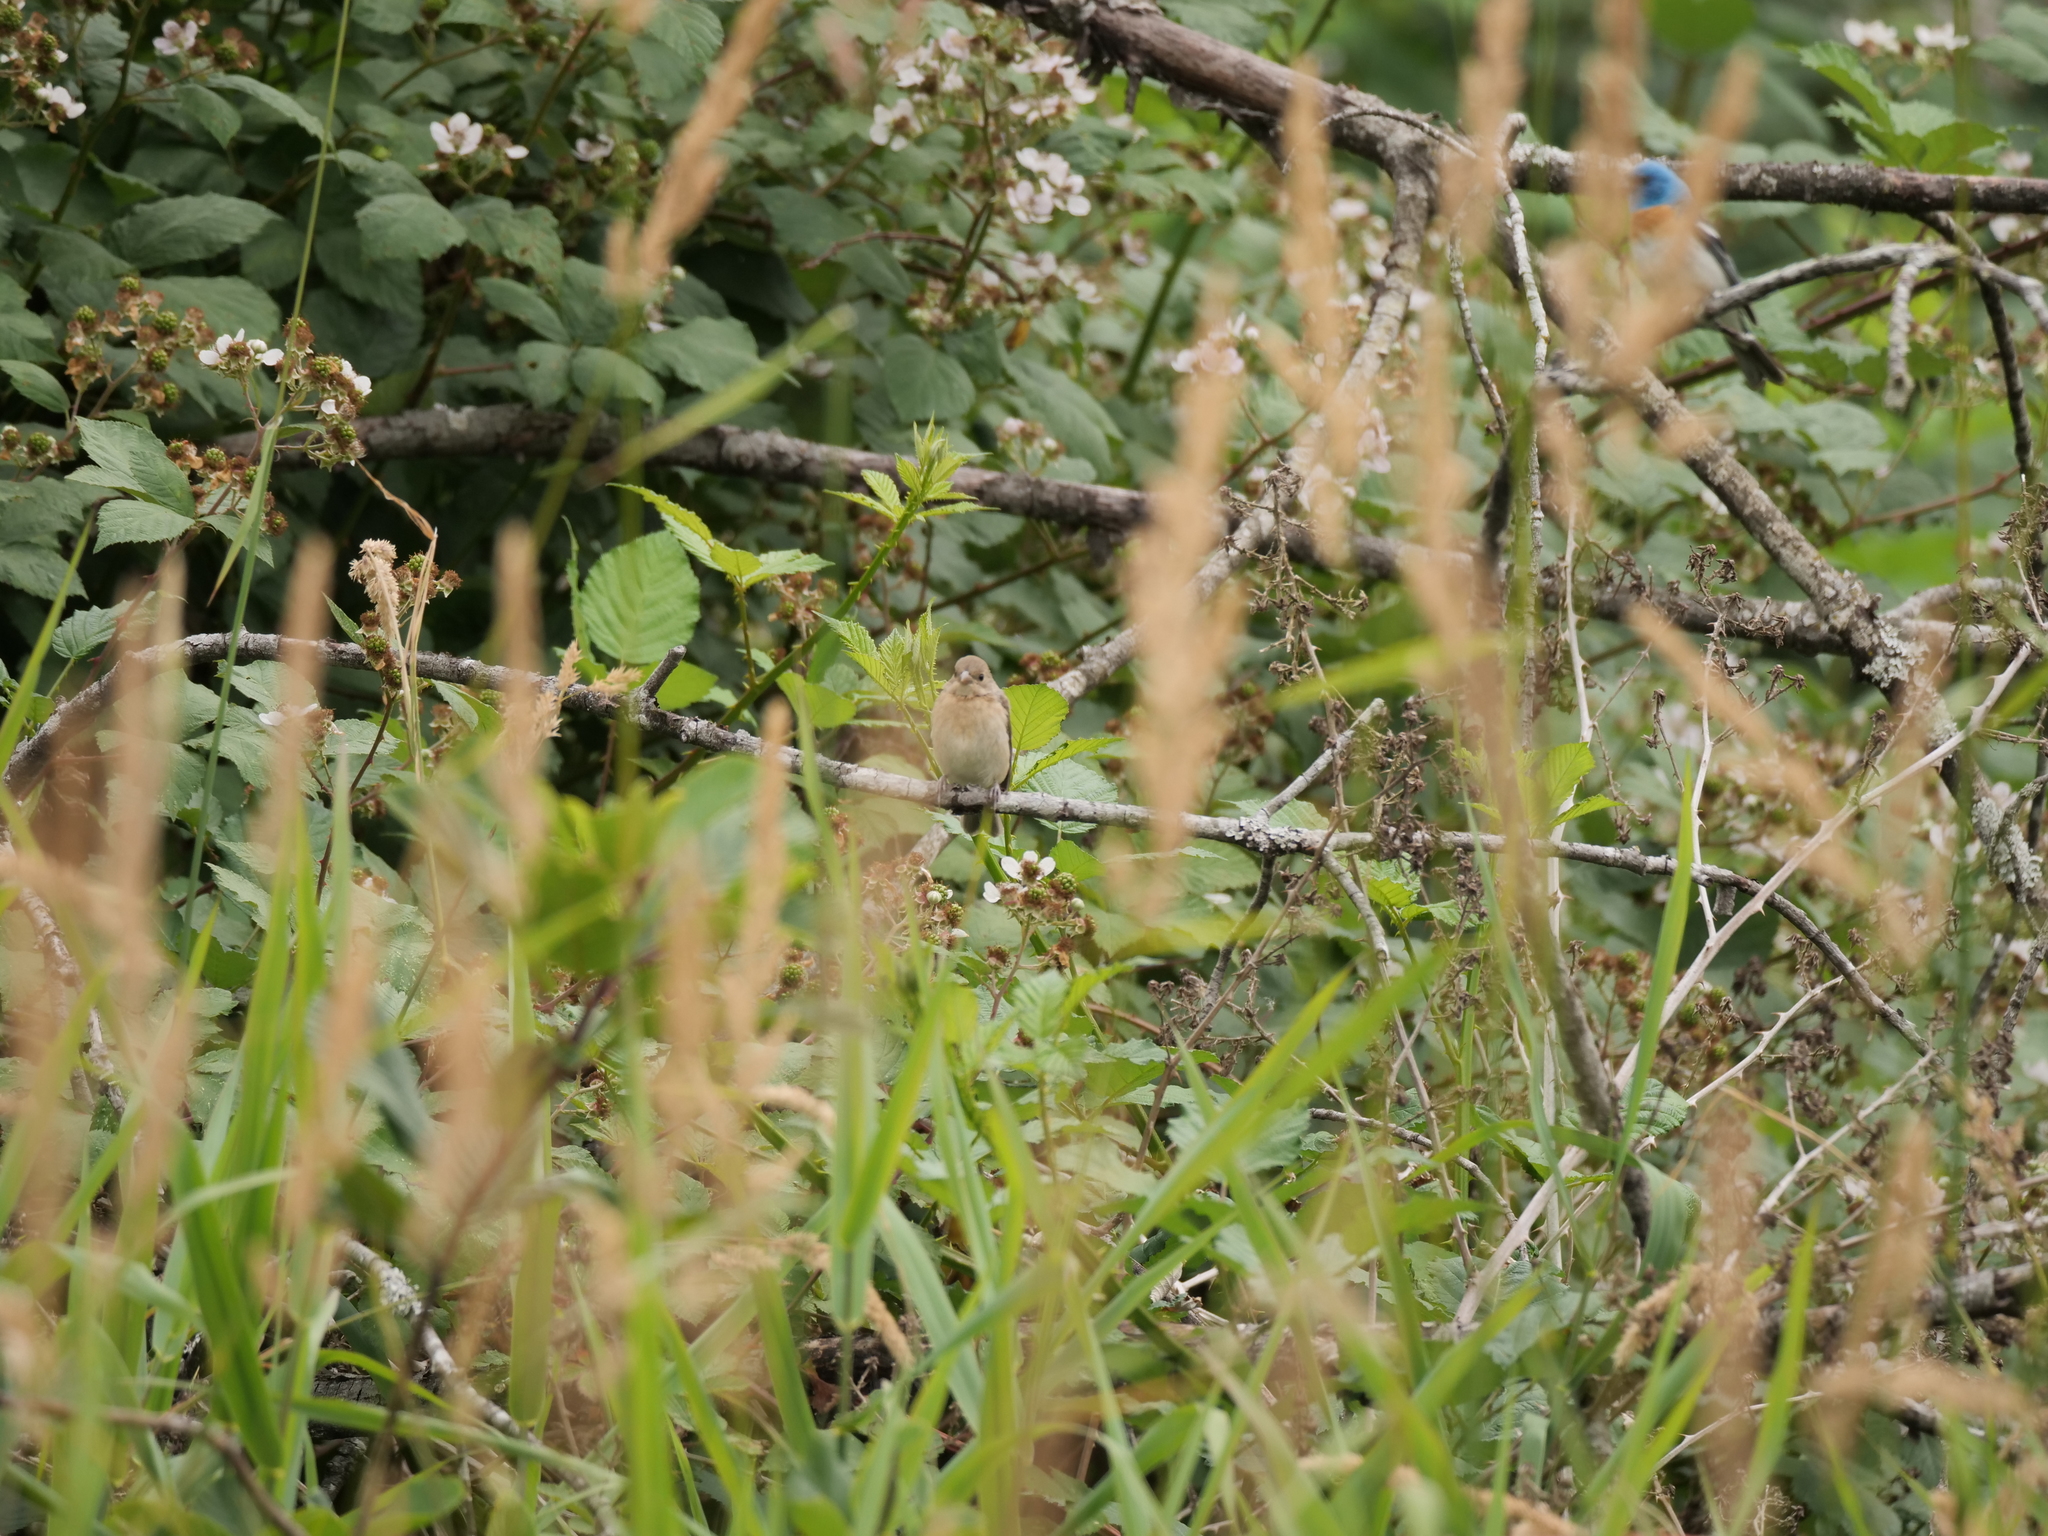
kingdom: Animalia
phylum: Chordata
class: Aves
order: Passeriformes
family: Cardinalidae
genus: Passerina
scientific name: Passerina amoena
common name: Lazuli bunting
